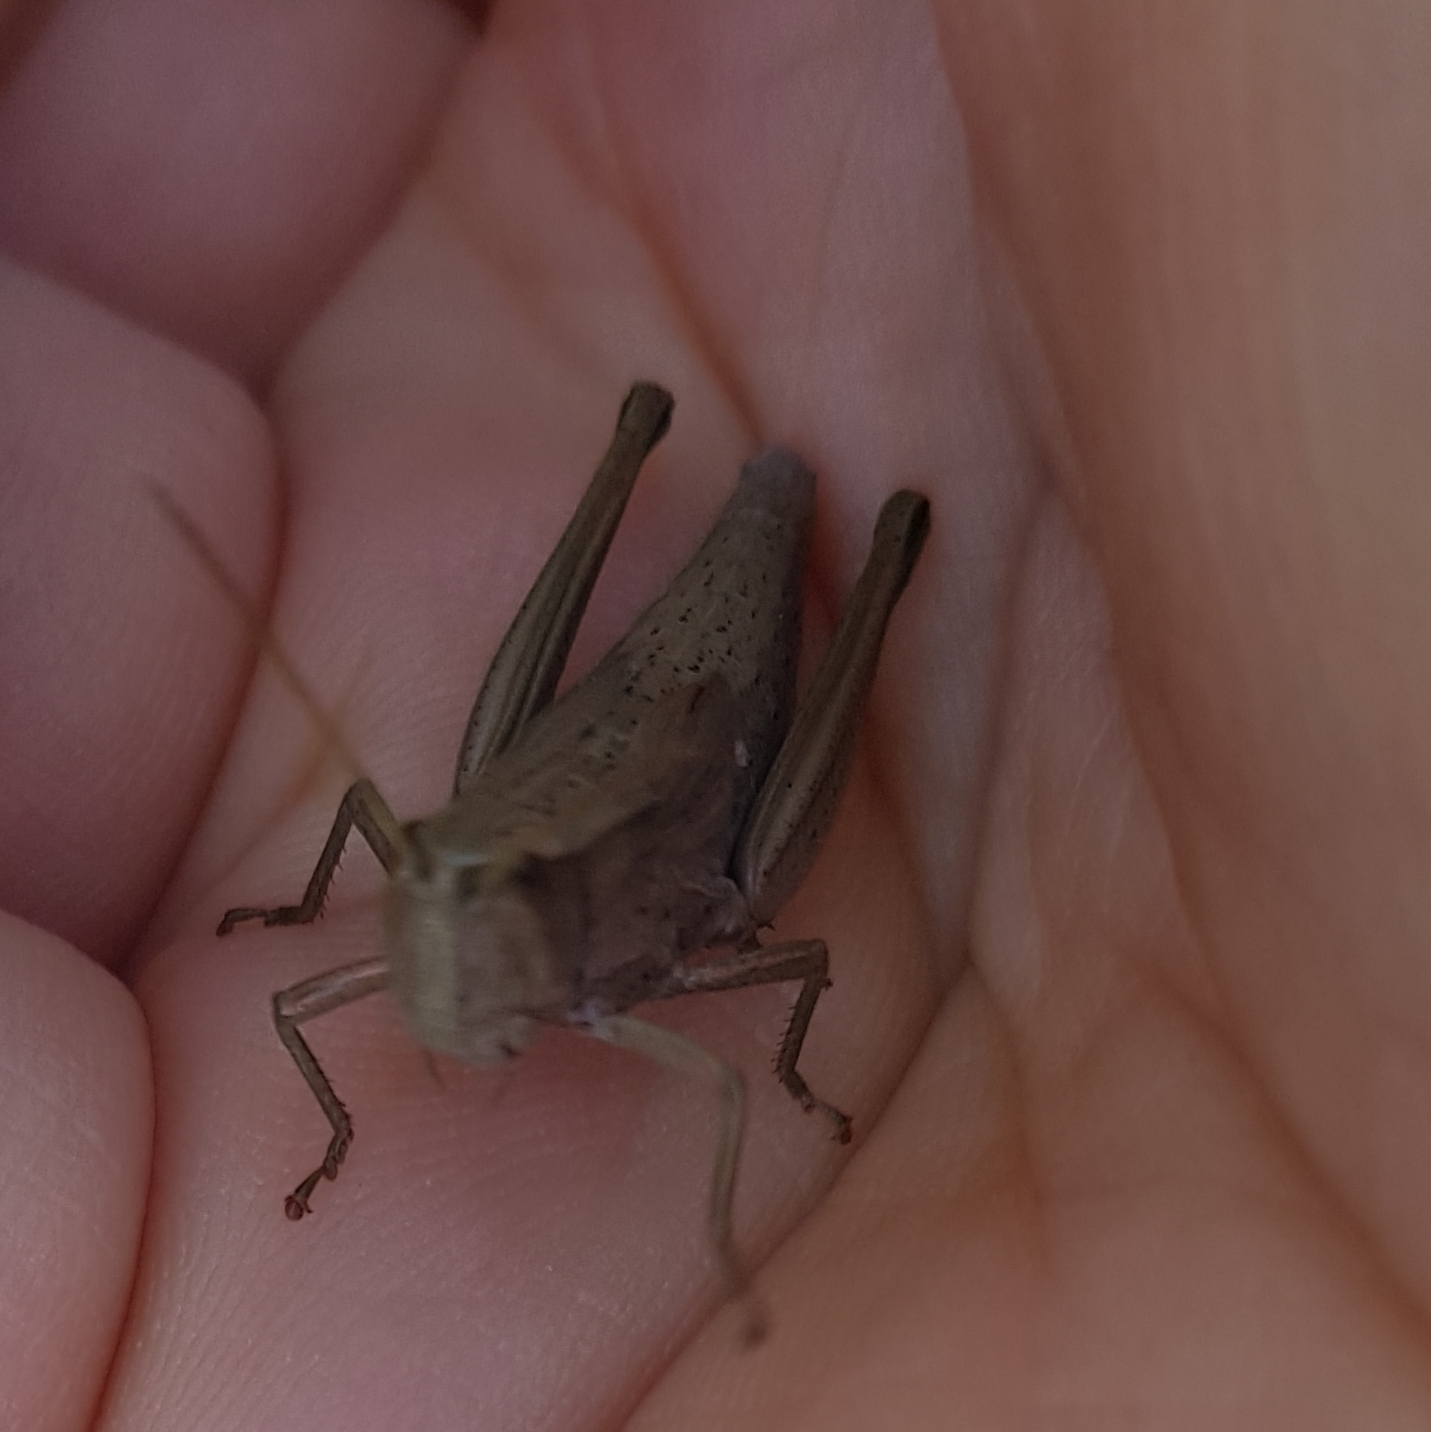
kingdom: Animalia
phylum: Arthropoda
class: Insecta
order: Orthoptera
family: Acrididae
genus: Chrysochraon
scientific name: Chrysochraon dispar
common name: Large gold grasshopper
